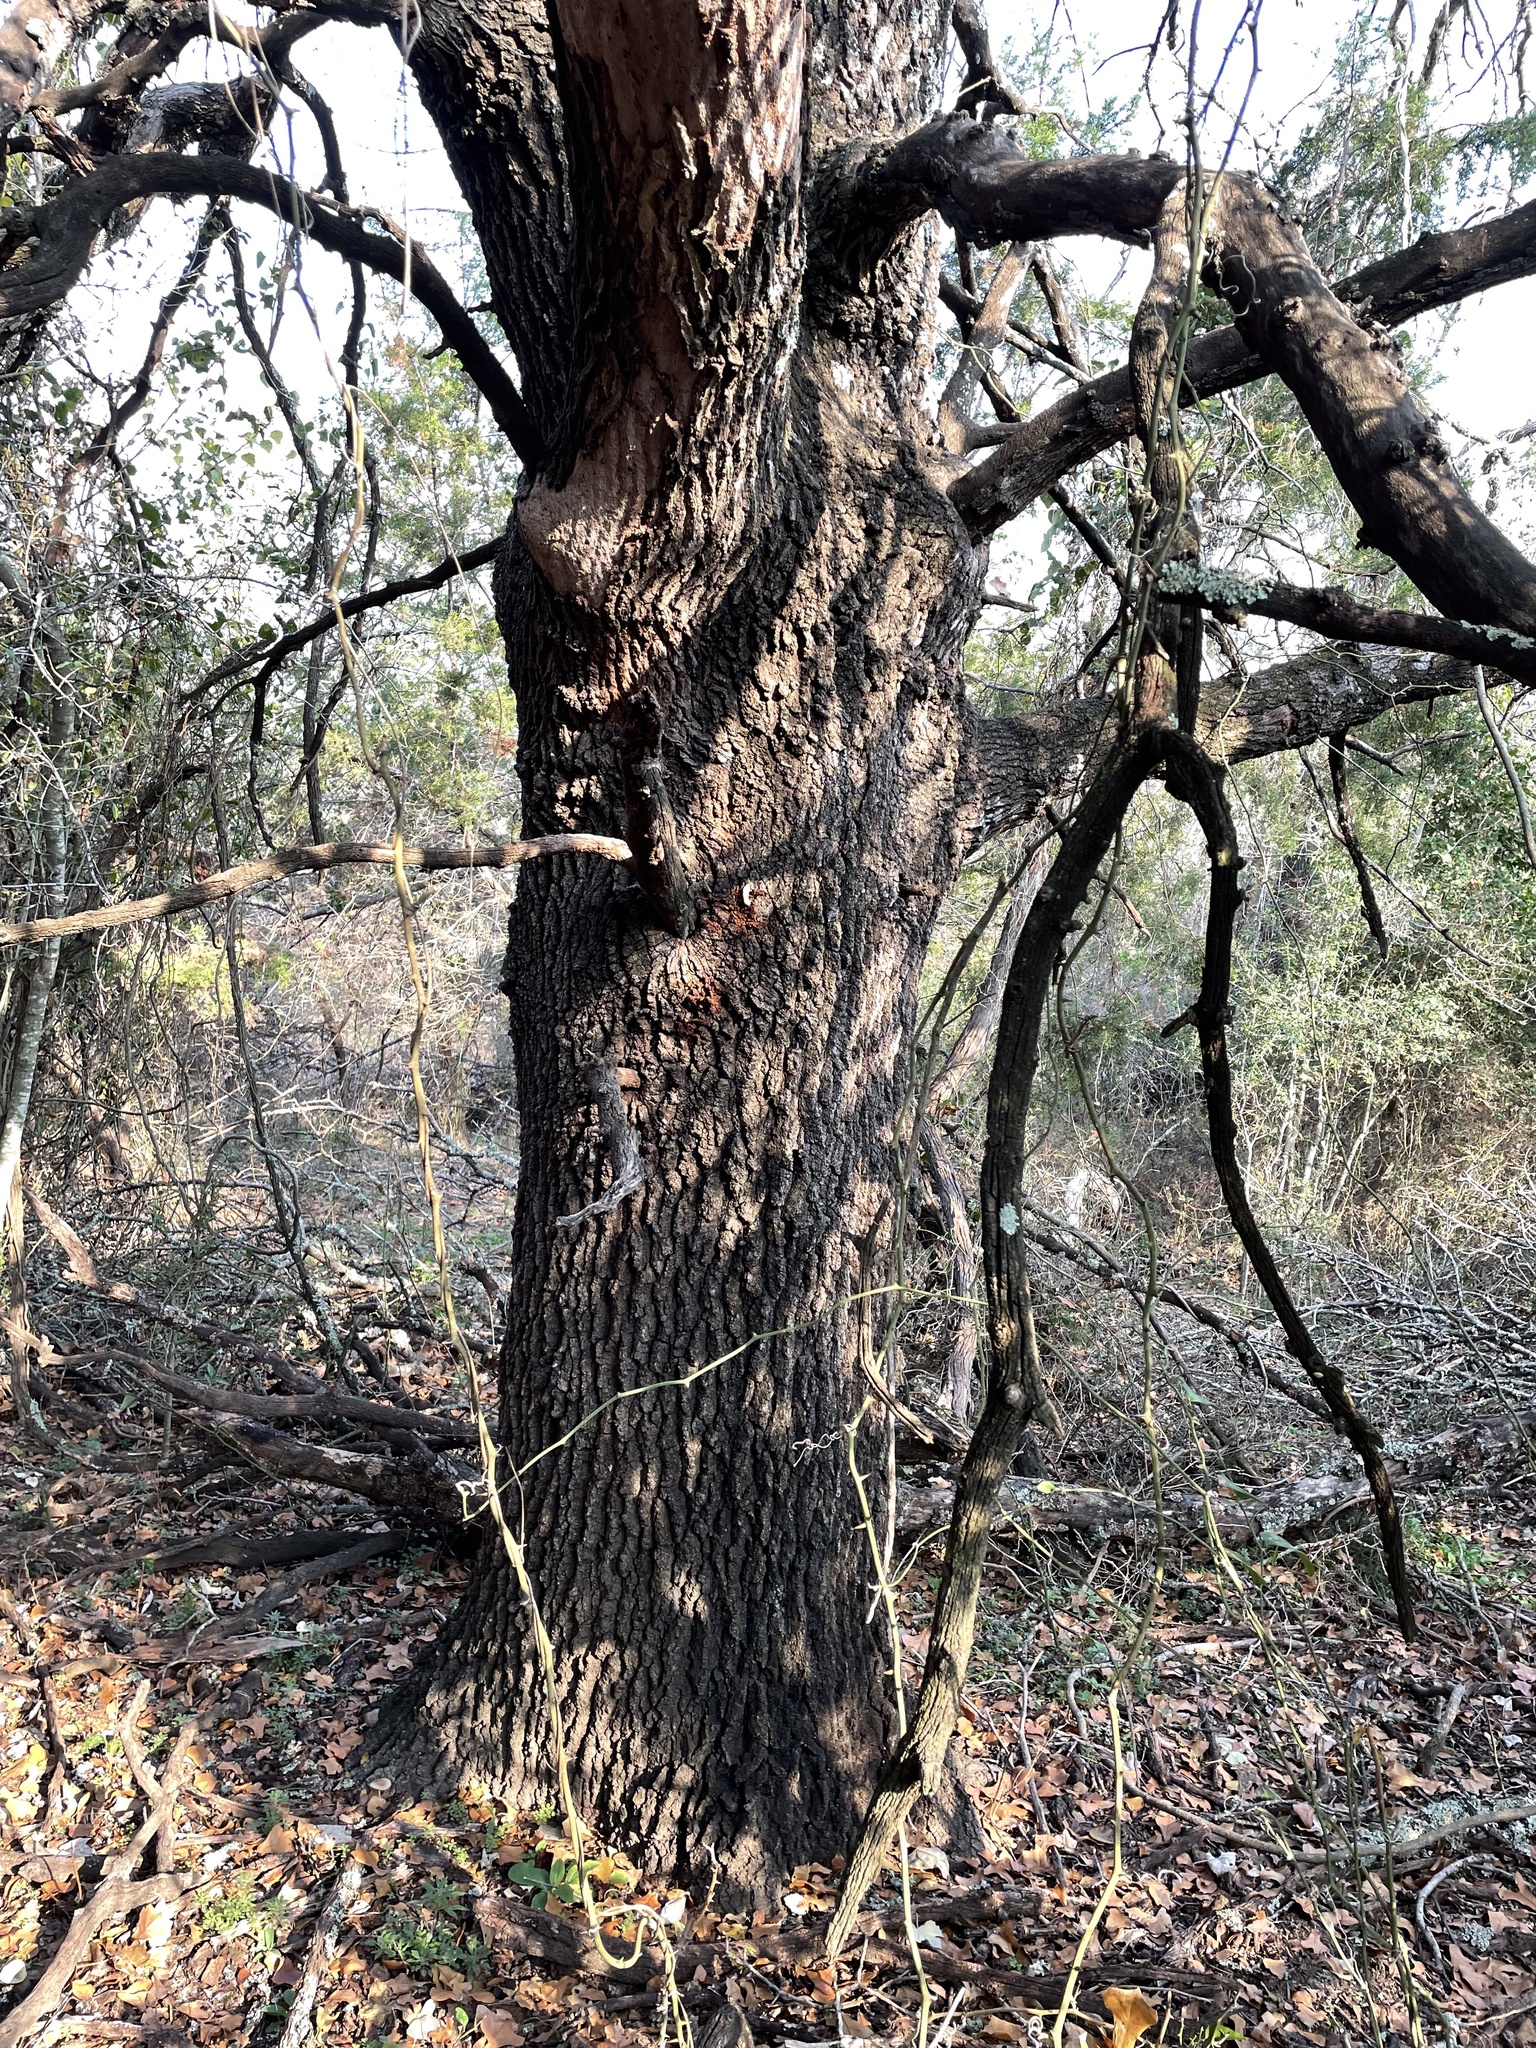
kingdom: Plantae
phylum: Tracheophyta
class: Magnoliopsida
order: Fagales
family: Fagaceae
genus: Quercus
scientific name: Quercus marilandica
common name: Blackjack oak
